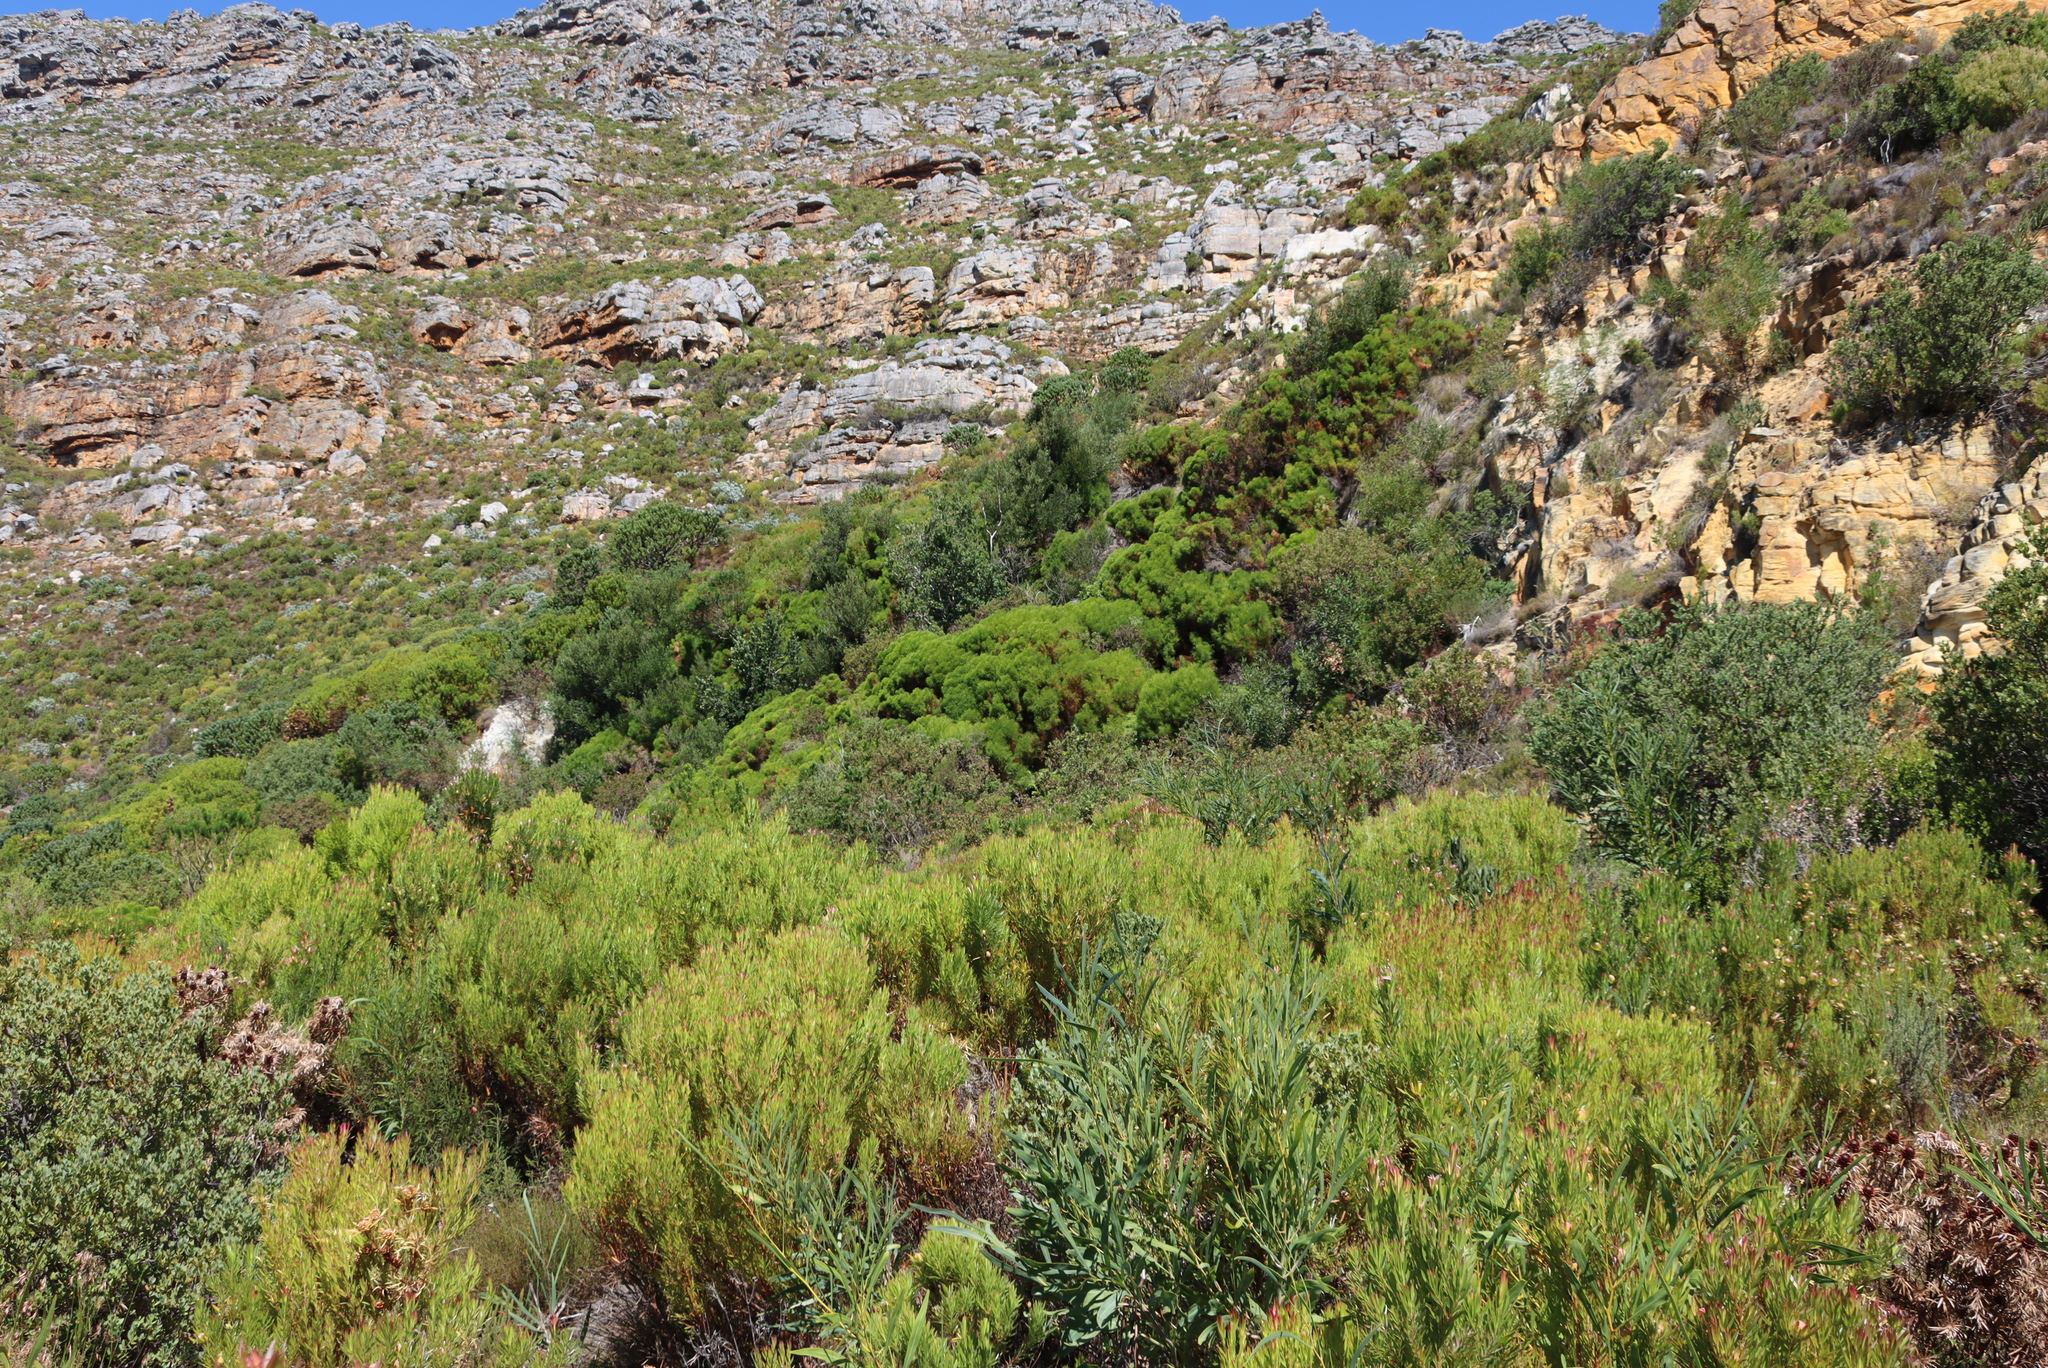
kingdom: Plantae
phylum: Tracheophyta
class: Magnoliopsida
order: Fabales
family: Fabaceae
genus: Acacia
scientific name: Acacia saligna
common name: Orange wattle
